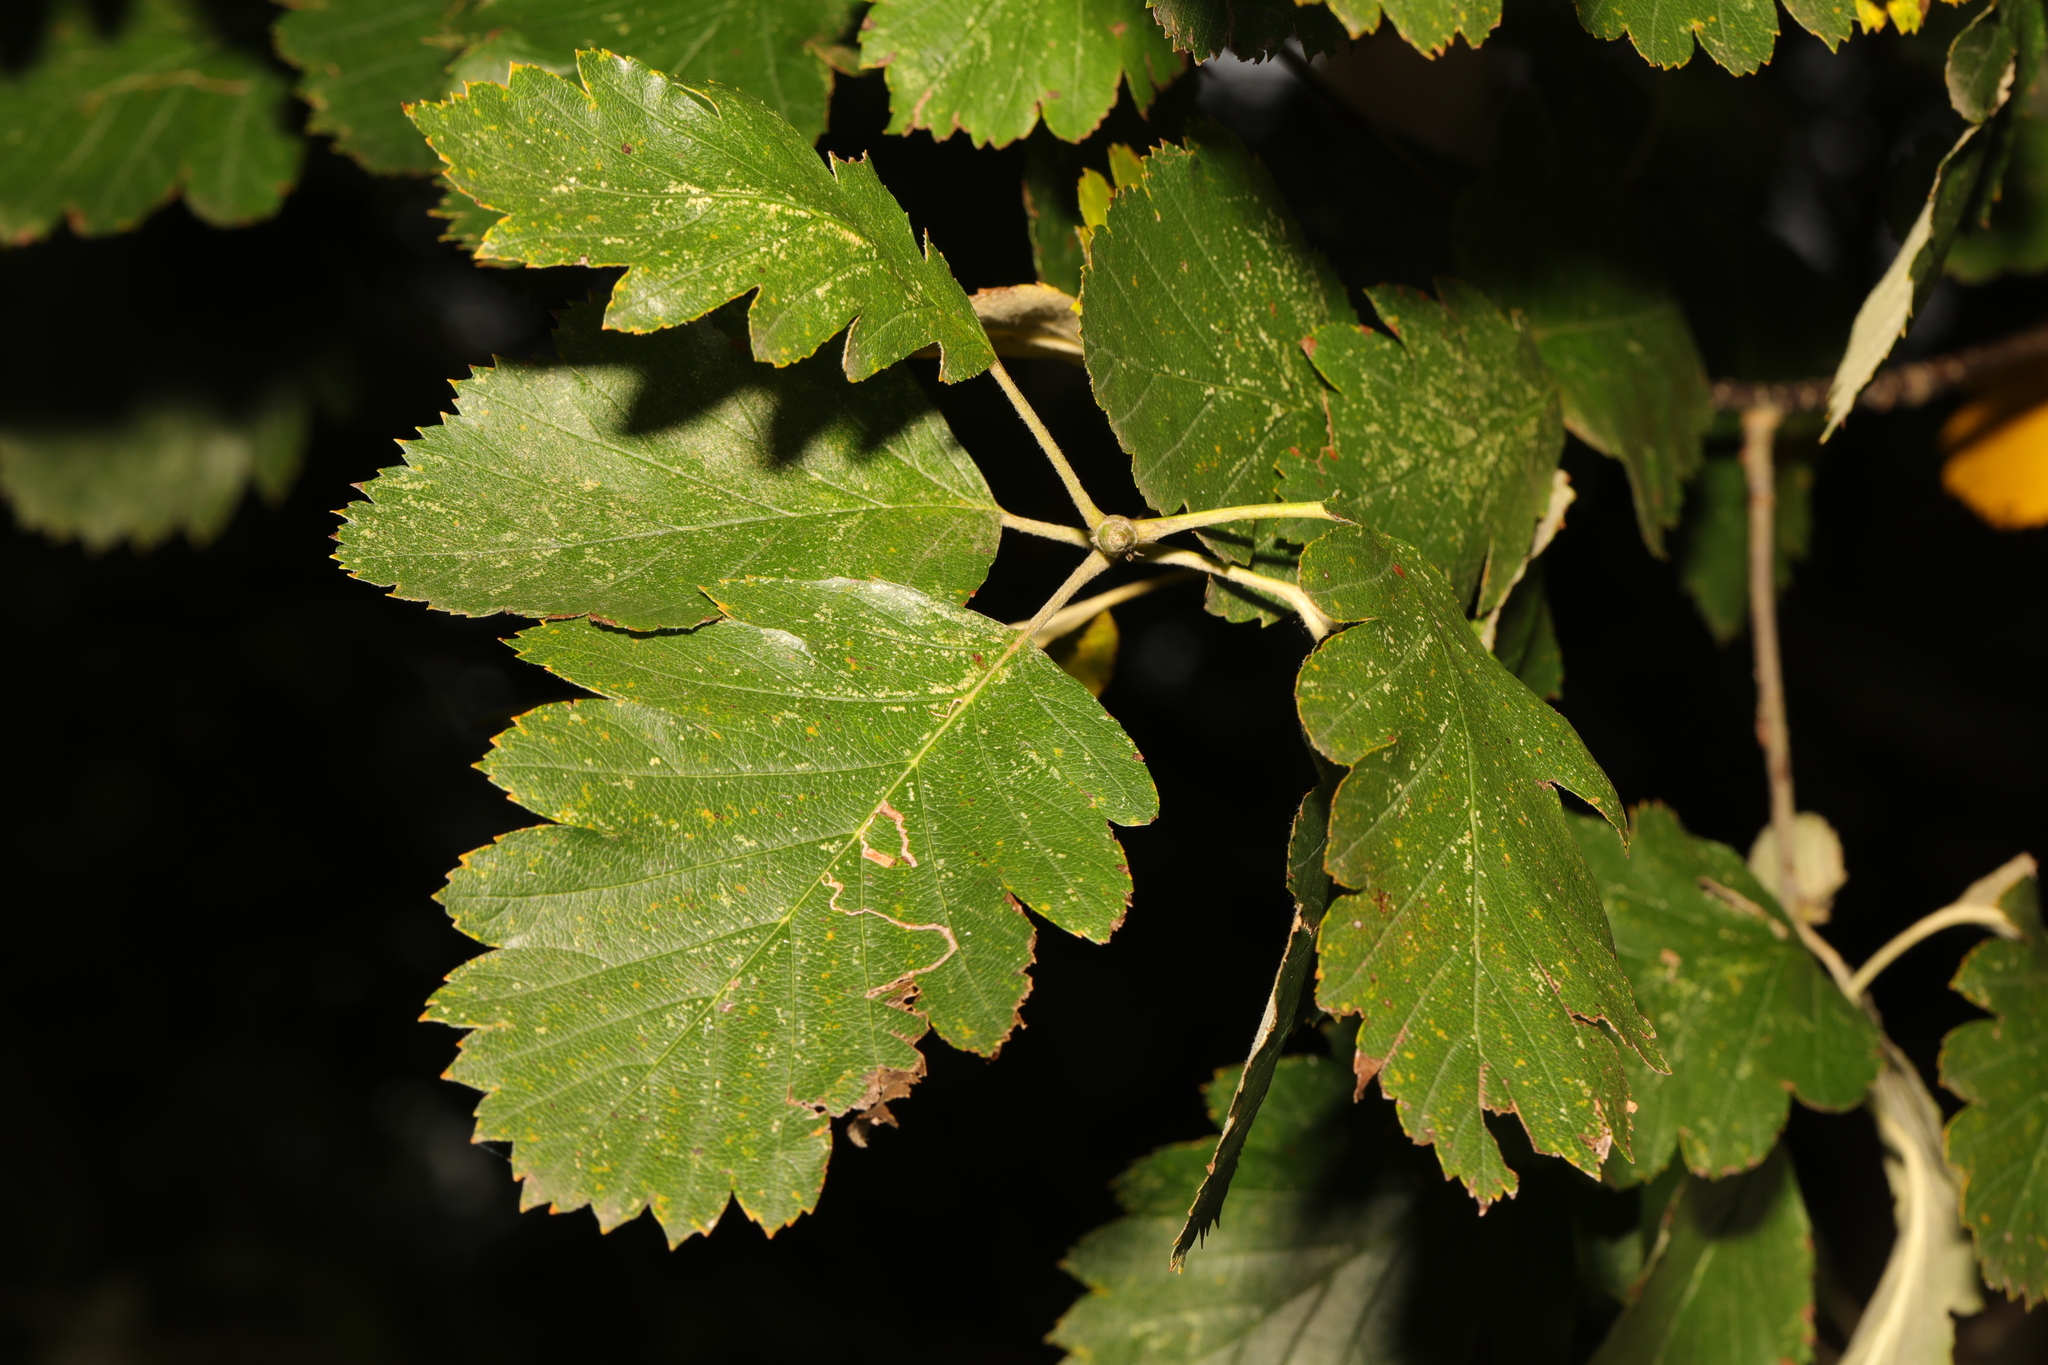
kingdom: Plantae
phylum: Tracheophyta
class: Magnoliopsida
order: Rosales
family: Rosaceae
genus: Scandosorbus
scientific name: Scandosorbus intermedia
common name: Swedish whitebeam
